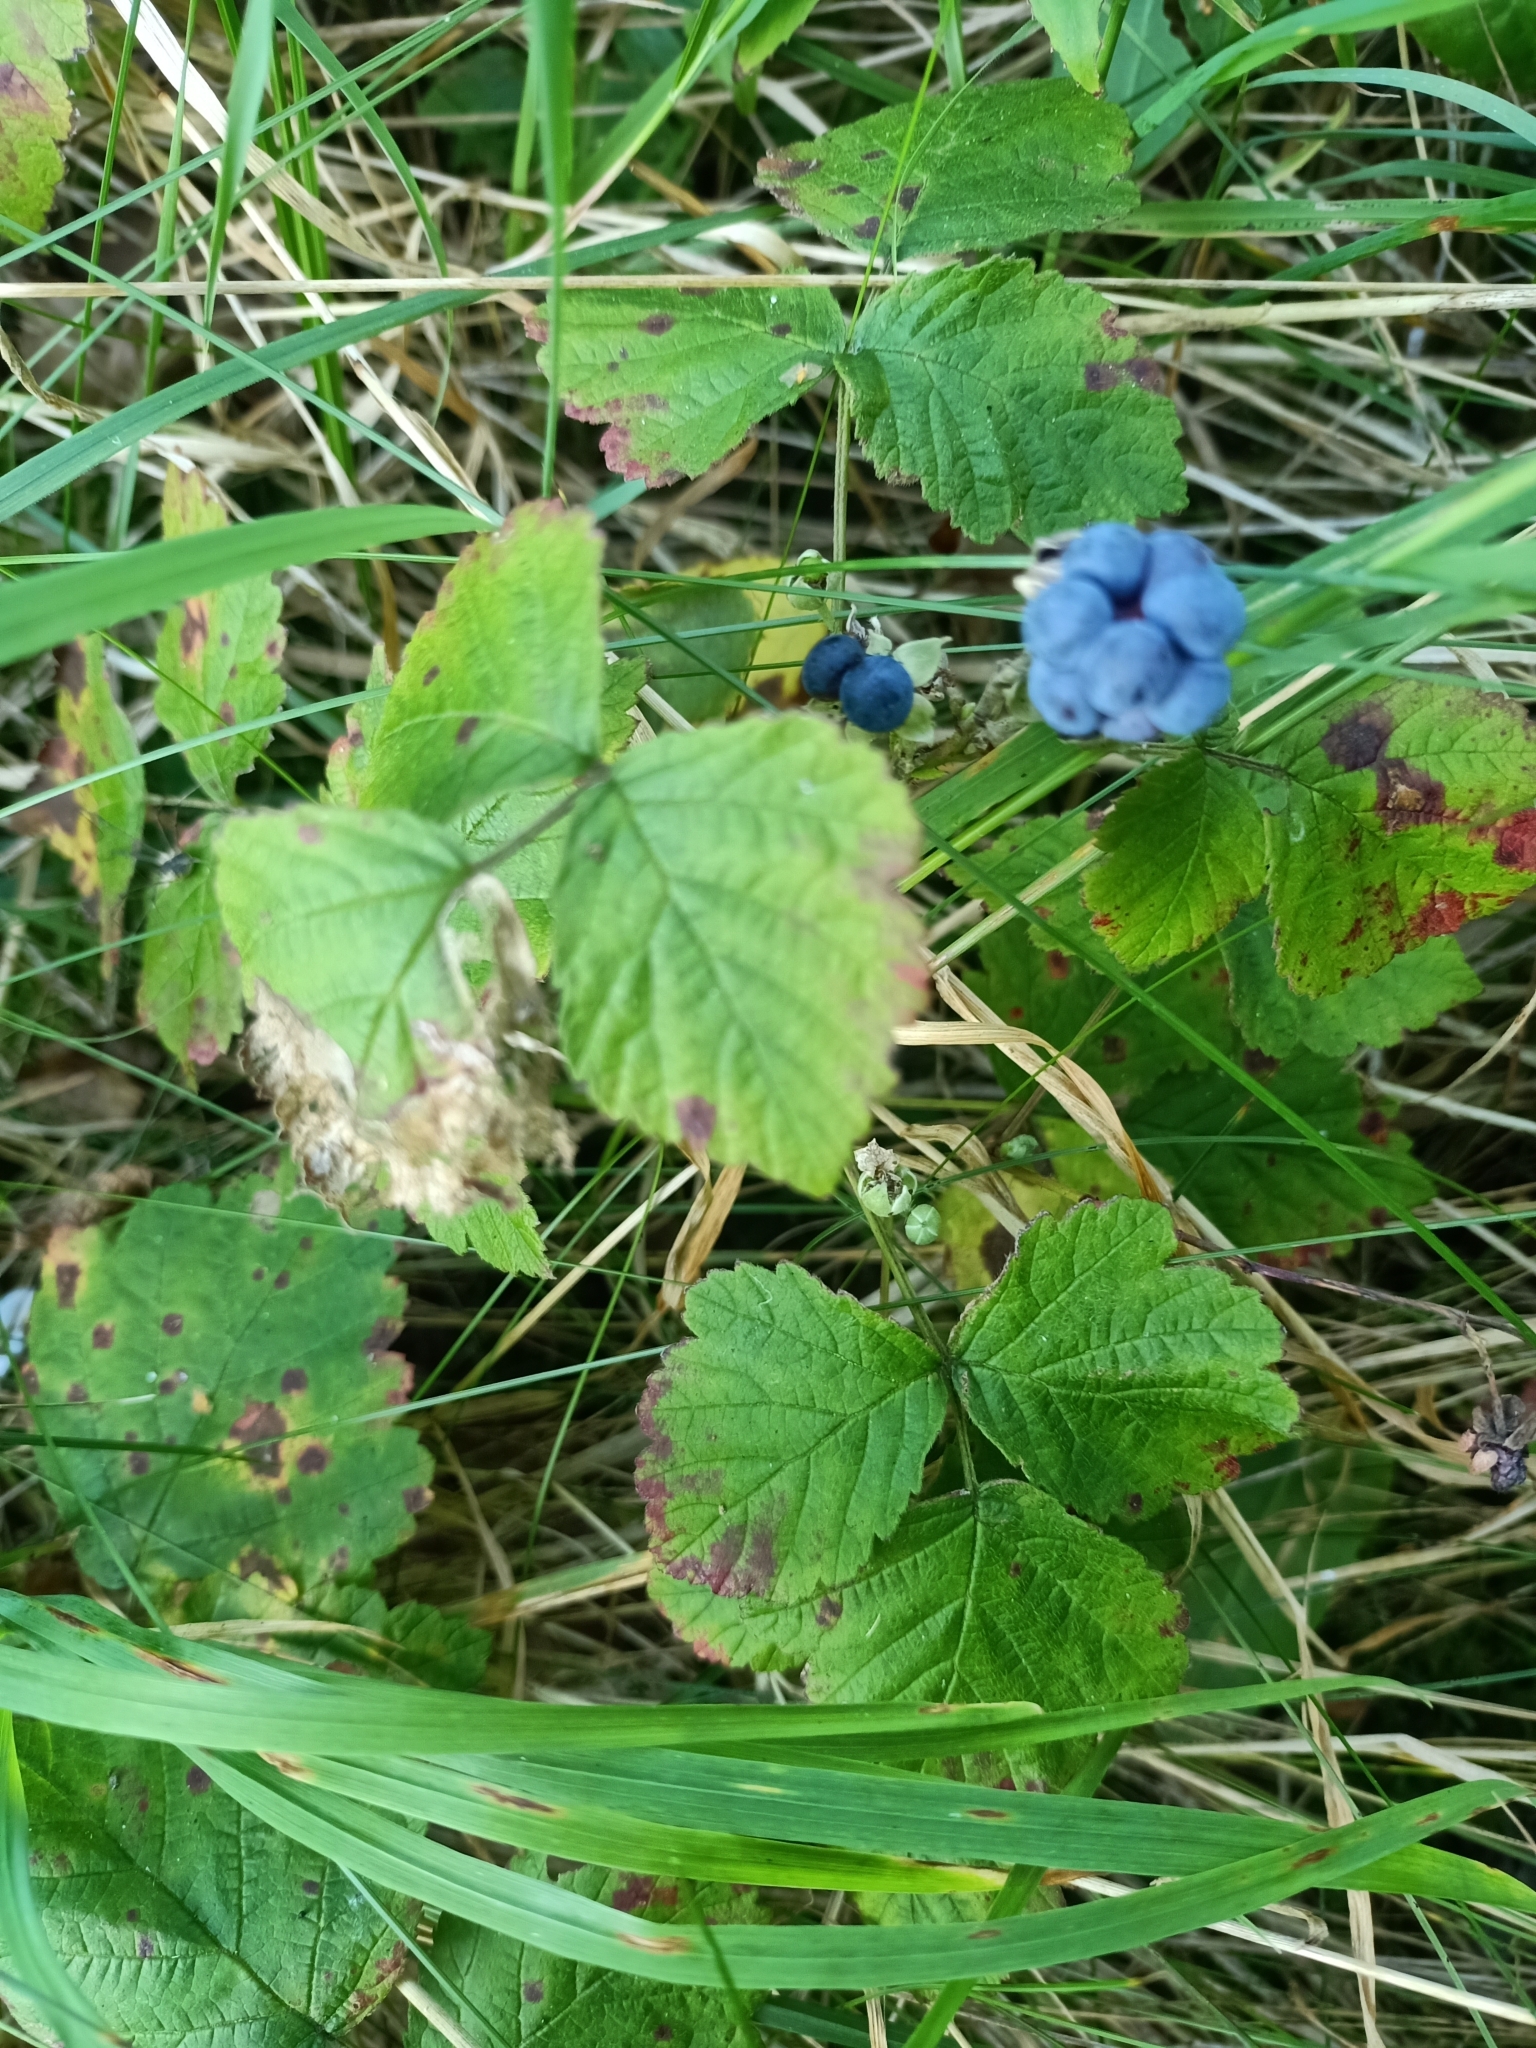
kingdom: Plantae
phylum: Tracheophyta
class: Magnoliopsida
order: Rosales
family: Rosaceae
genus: Rubus
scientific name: Rubus caesius
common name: Dewberry
